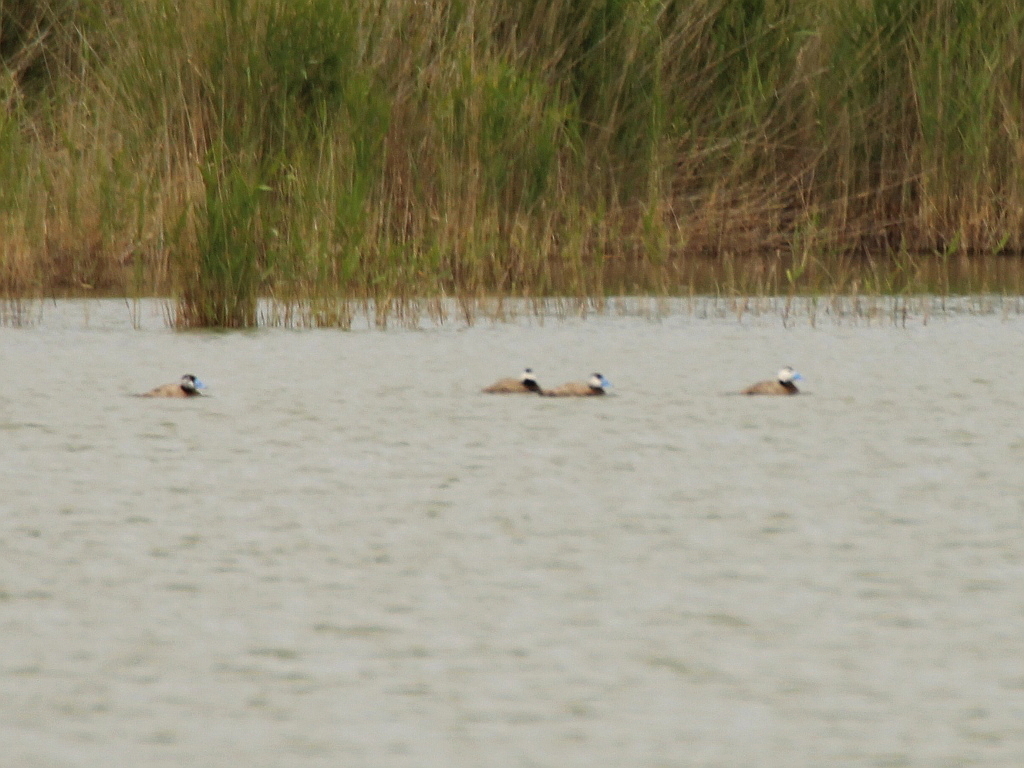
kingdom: Animalia
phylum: Chordata
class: Aves
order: Anseriformes
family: Anatidae
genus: Oxyura
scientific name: Oxyura leucocephala
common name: White-headed duck
